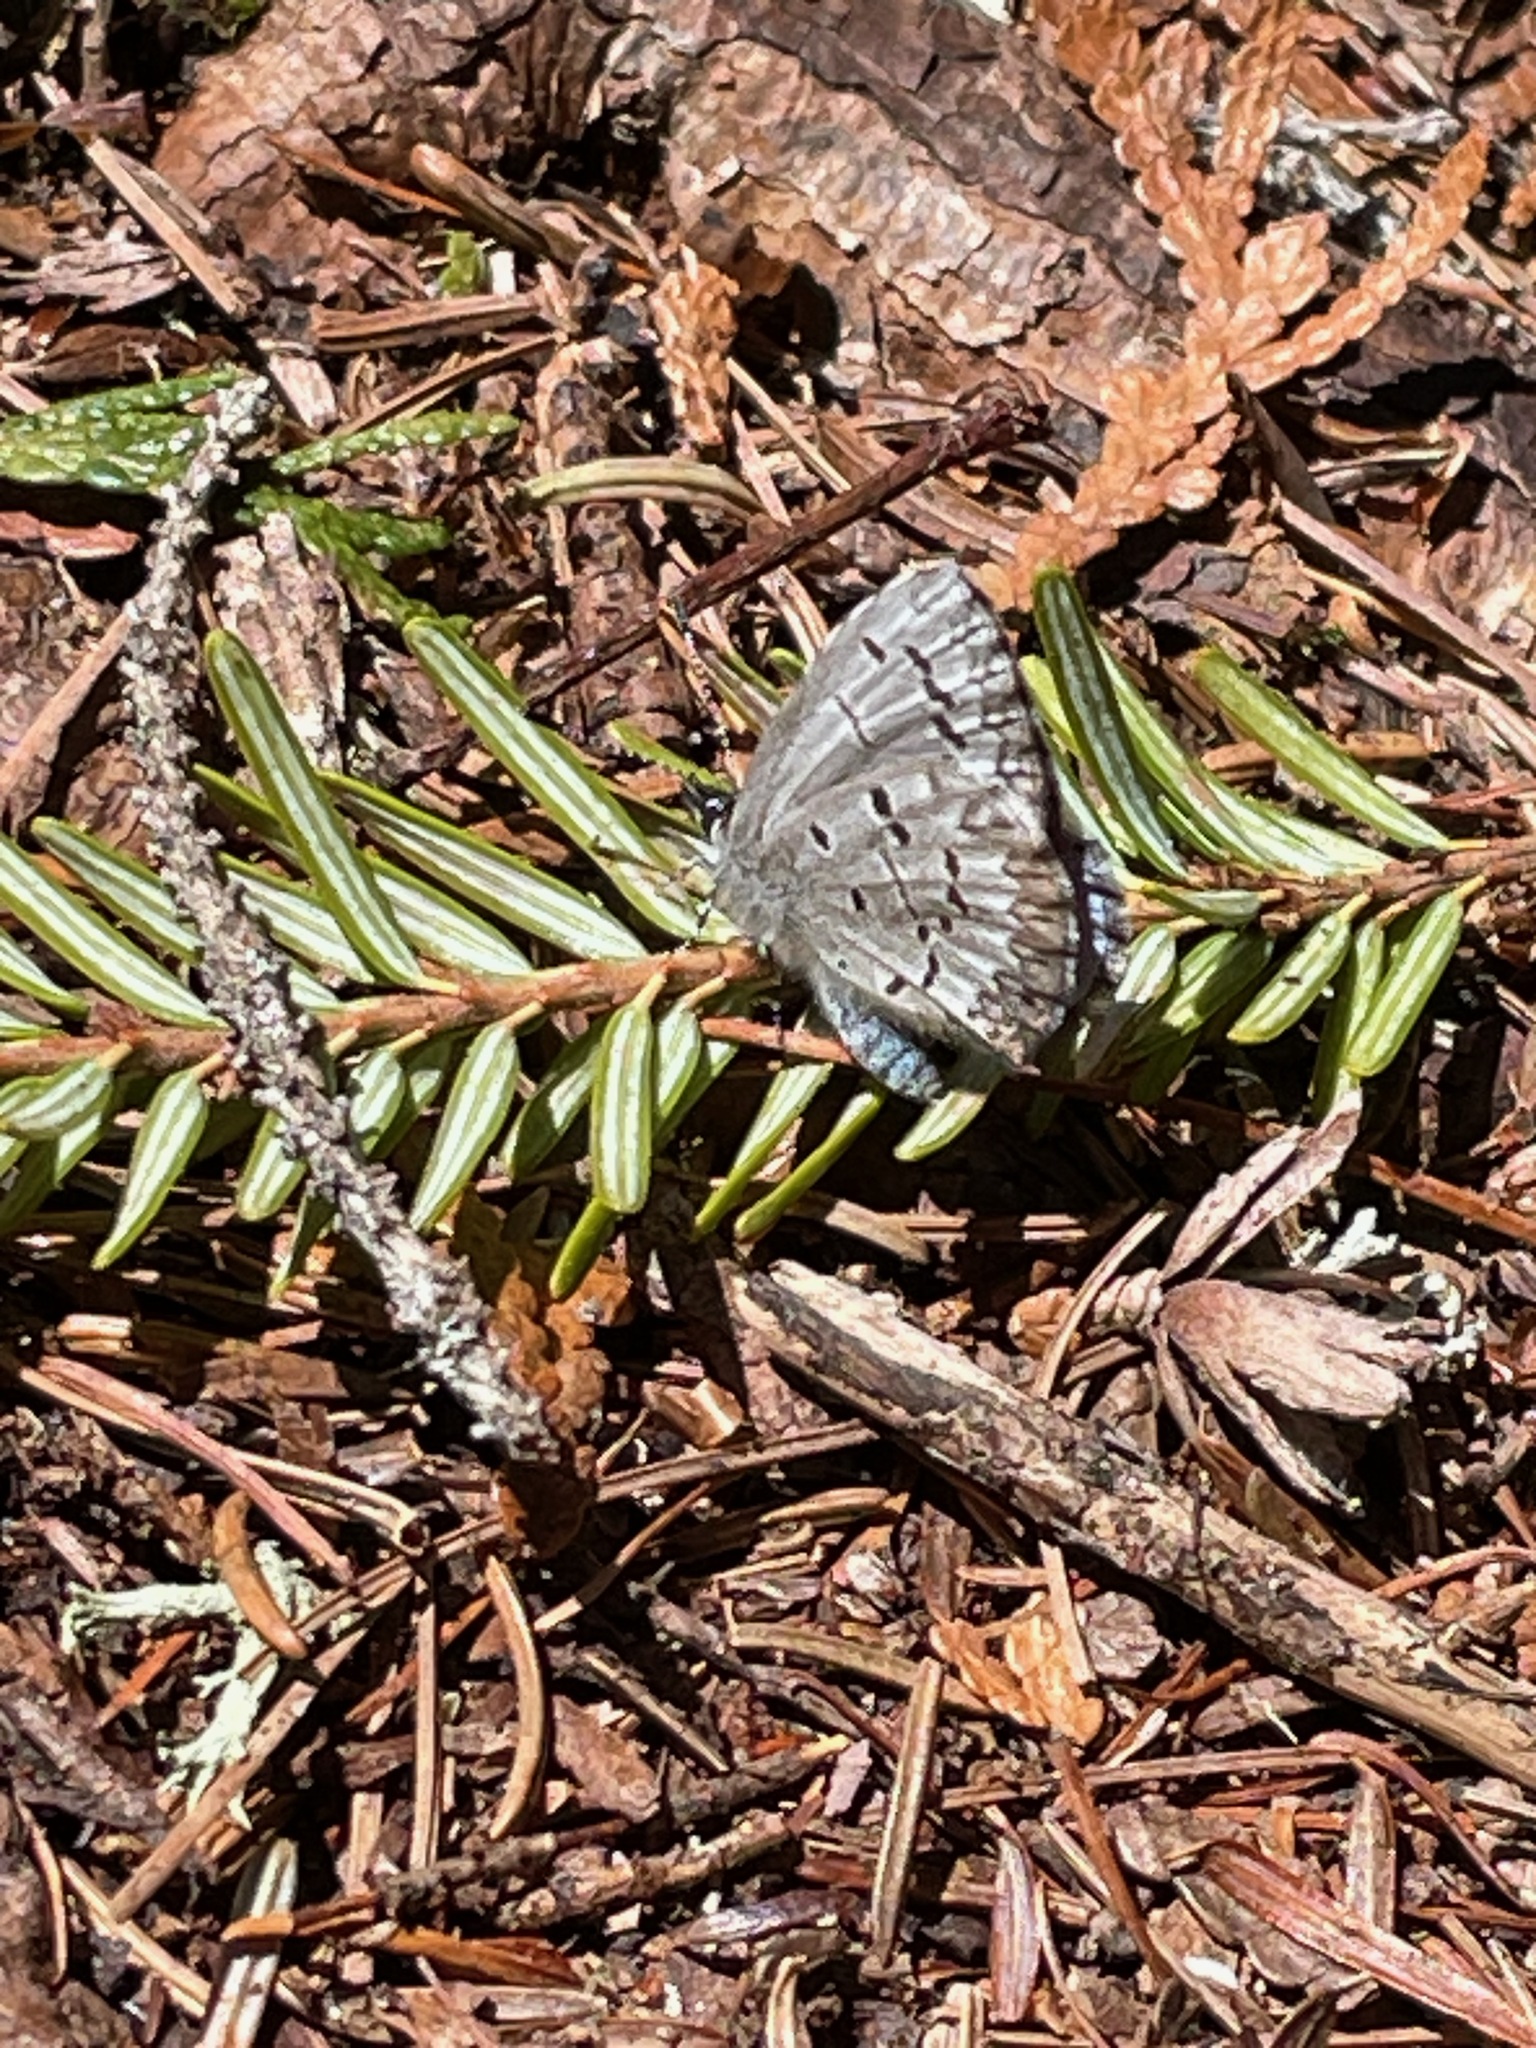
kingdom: Animalia
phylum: Arthropoda
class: Insecta
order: Lepidoptera
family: Lycaenidae
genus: Celastrina
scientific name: Celastrina lucia
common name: Lucia azure
